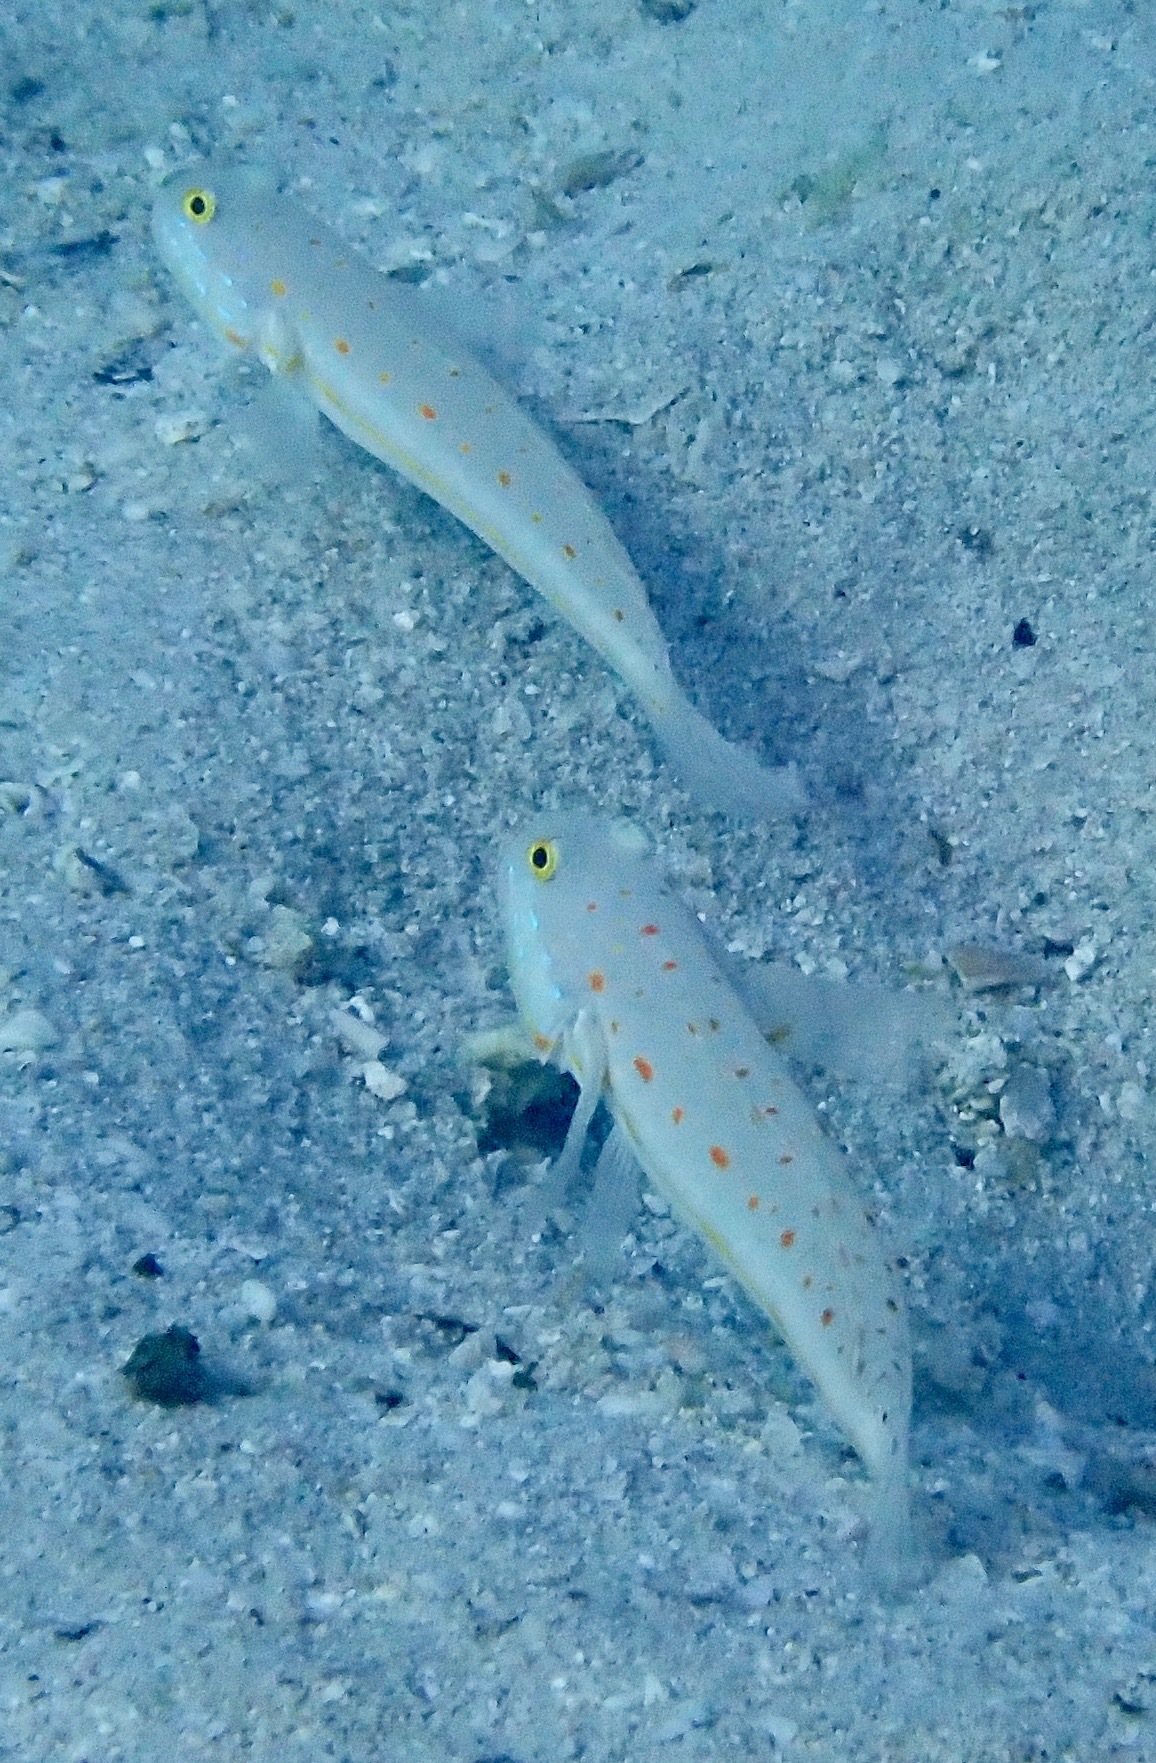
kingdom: Animalia
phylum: Chordata
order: Perciformes
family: Gobiidae
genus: Valenciennea
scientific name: Valenciennea puellaris
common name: Orange-dashed goby
